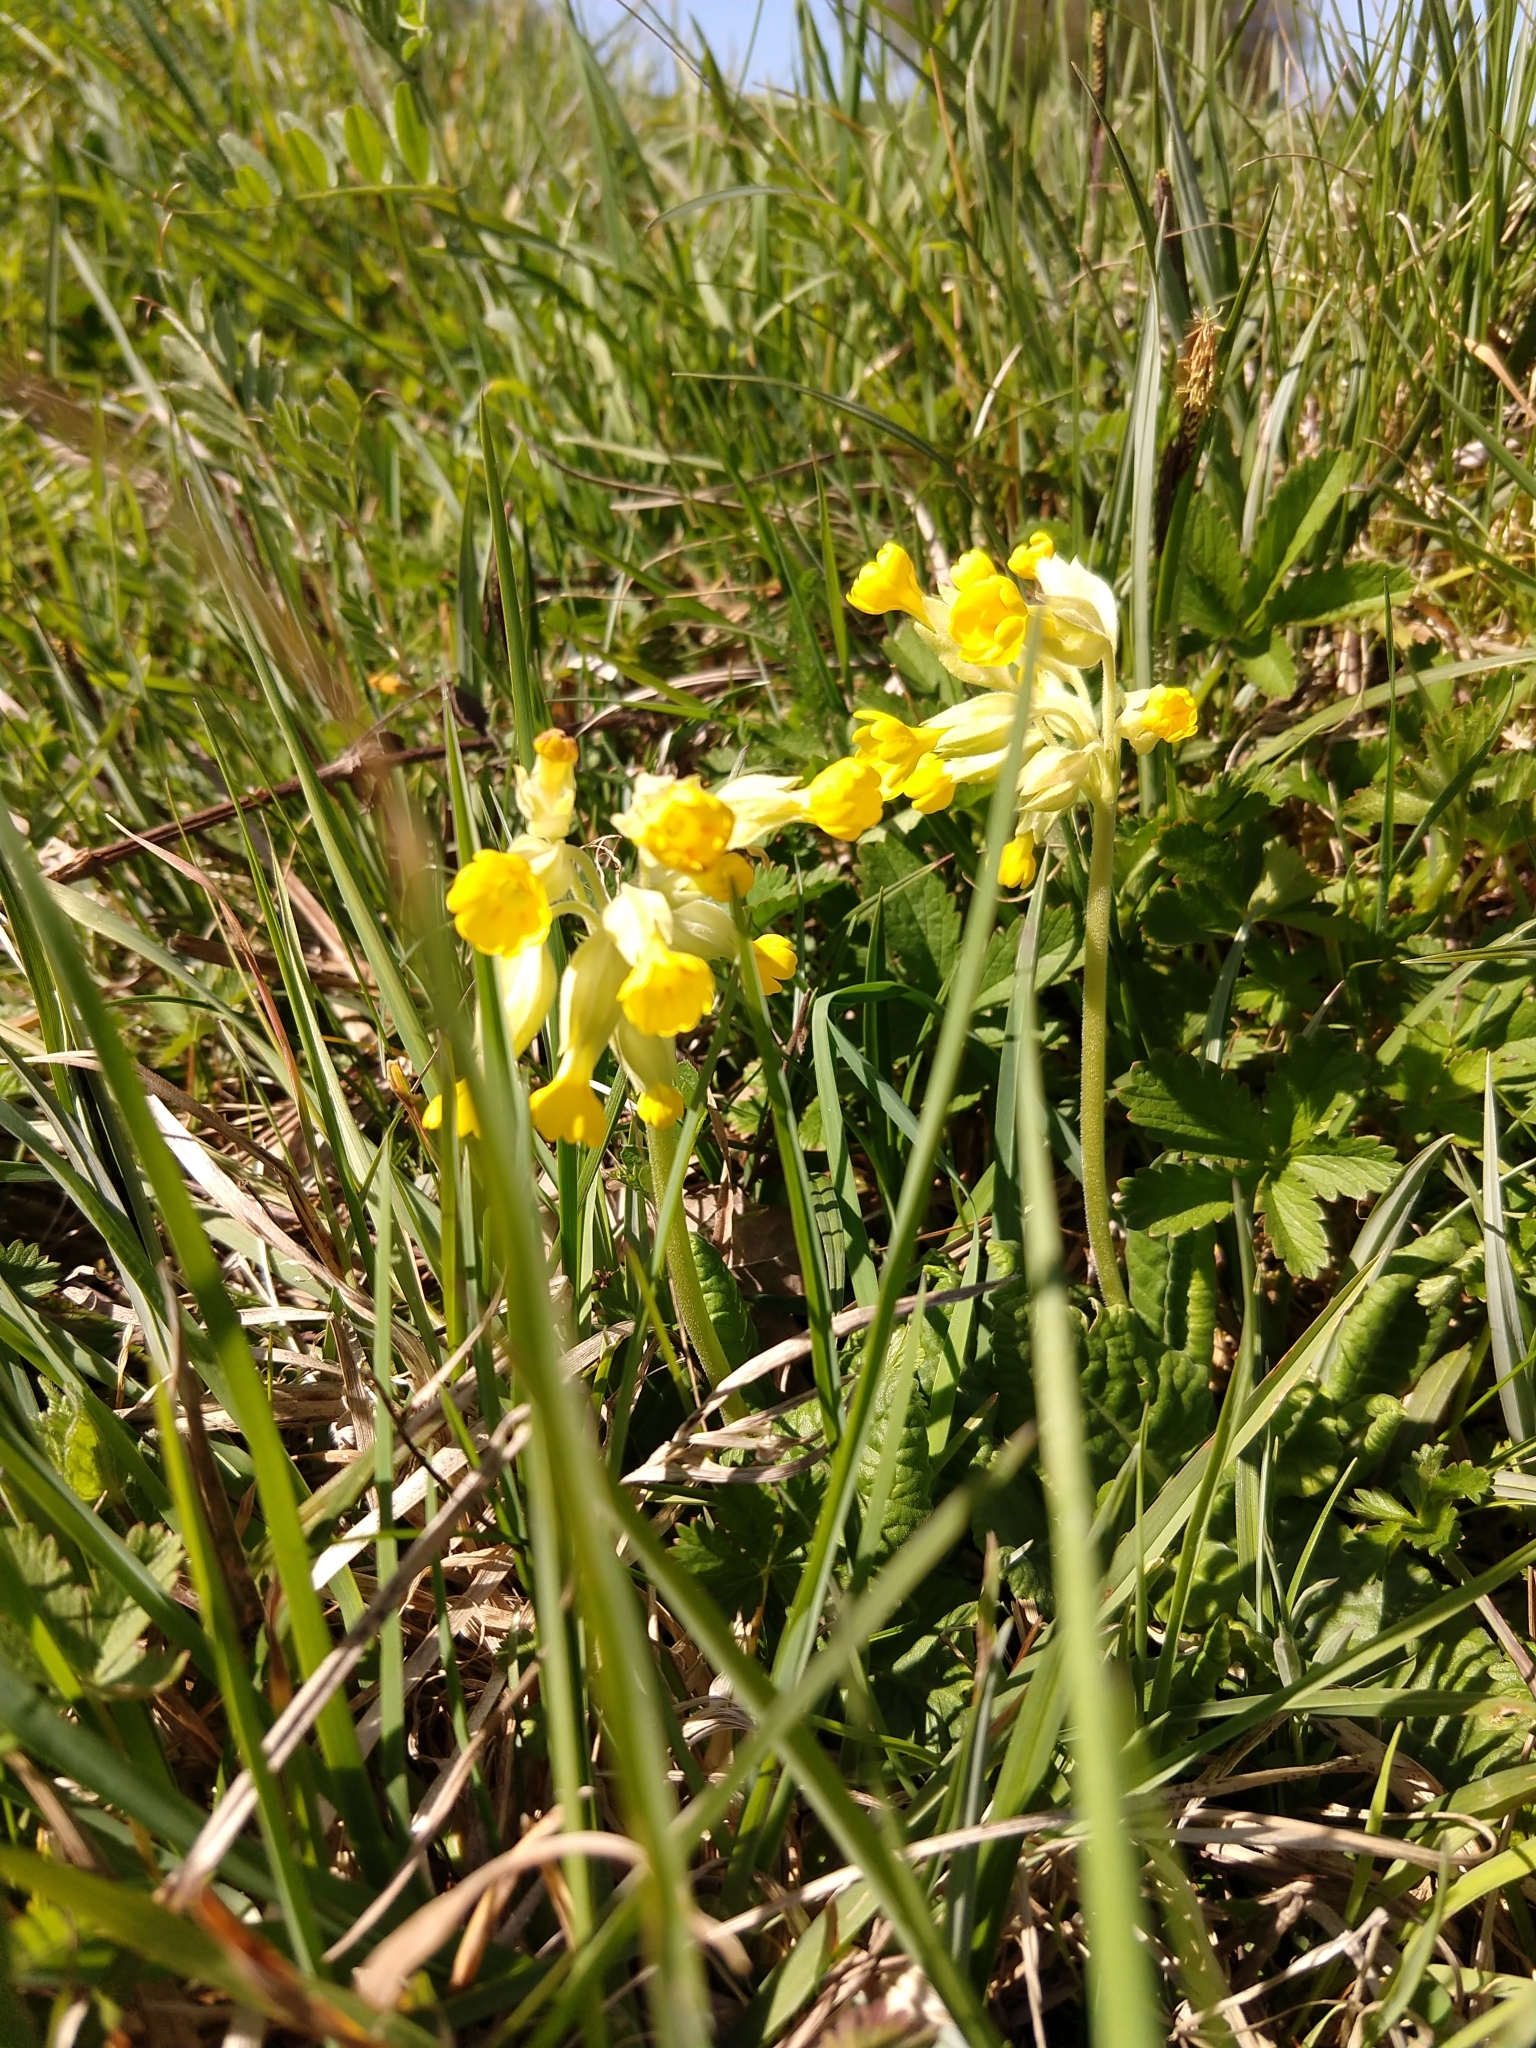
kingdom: Plantae
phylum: Tracheophyta
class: Magnoliopsida
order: Ericales
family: Primulaceae
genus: Primula
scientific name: Primula veris
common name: Cowslip
